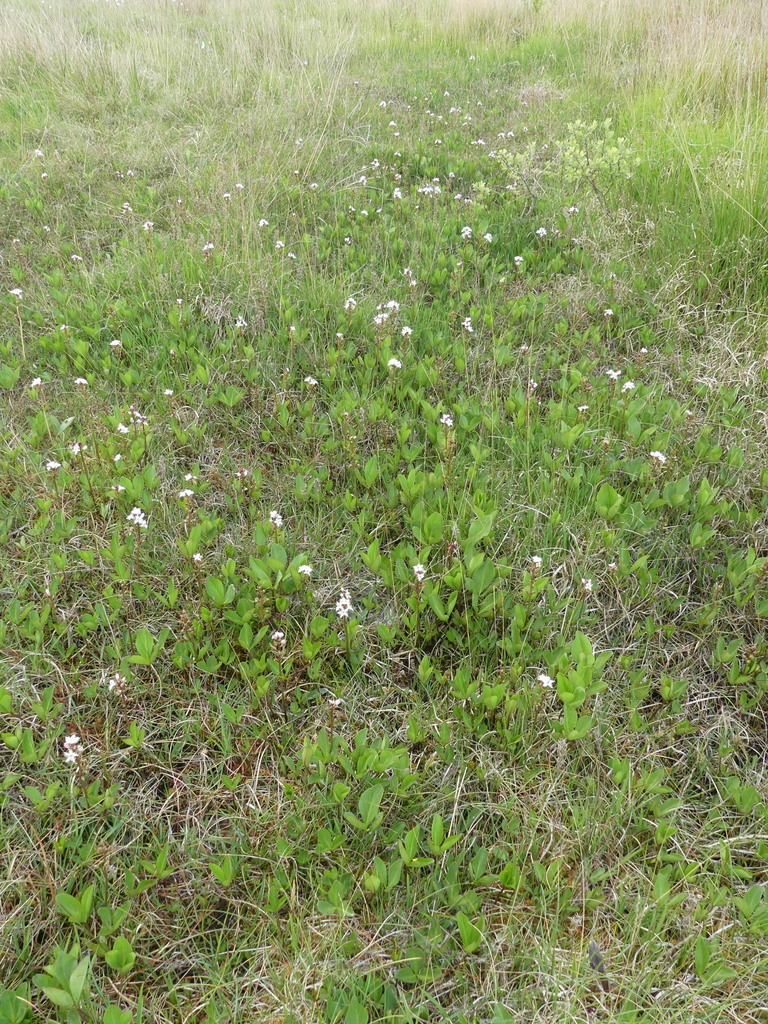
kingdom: Plantae
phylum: Tracheophyta
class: Magnoliopsida
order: Asterales
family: Menyanthaceae
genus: Menyanthes
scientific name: Menyanthes trifoliata
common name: Bogbean
